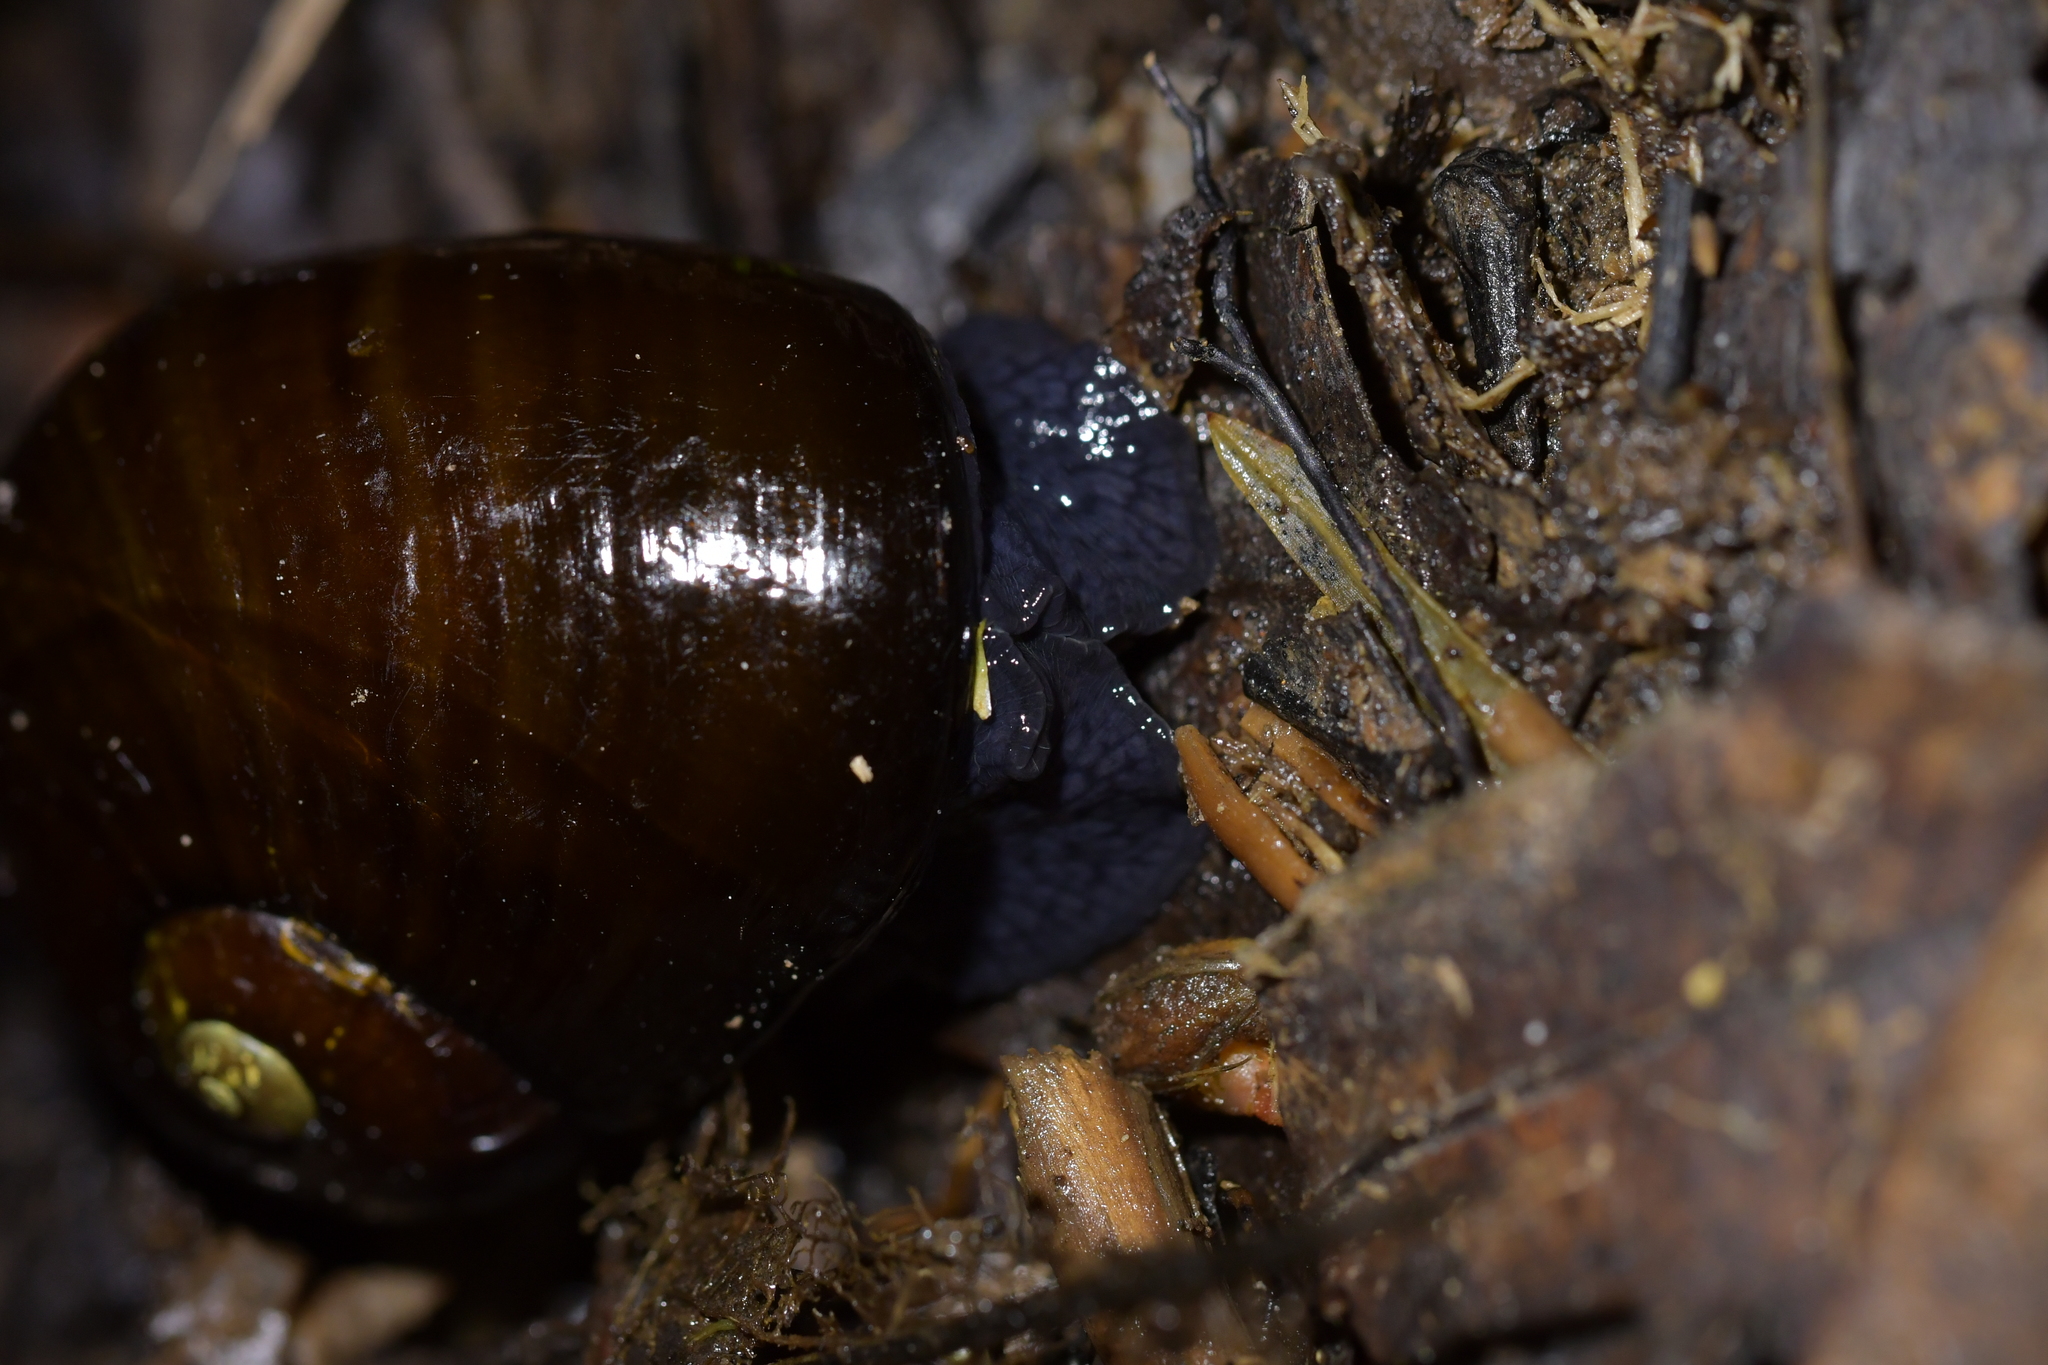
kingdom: Animalia
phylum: Mollusca
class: Gastropoda
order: Stylommatophora
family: Rhytididae
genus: Wainuia
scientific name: Wainuia urnula
